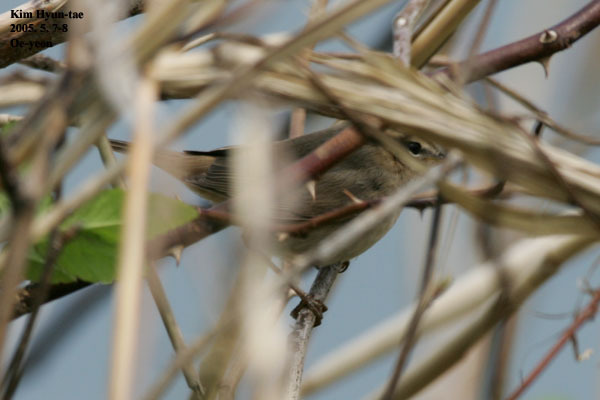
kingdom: Animalia
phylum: Chordata
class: Aves
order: Passeriformes
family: Phylloscopidae
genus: Phylloscopus
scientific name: Phylloscopus fuscatus
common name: Dusky warbler
